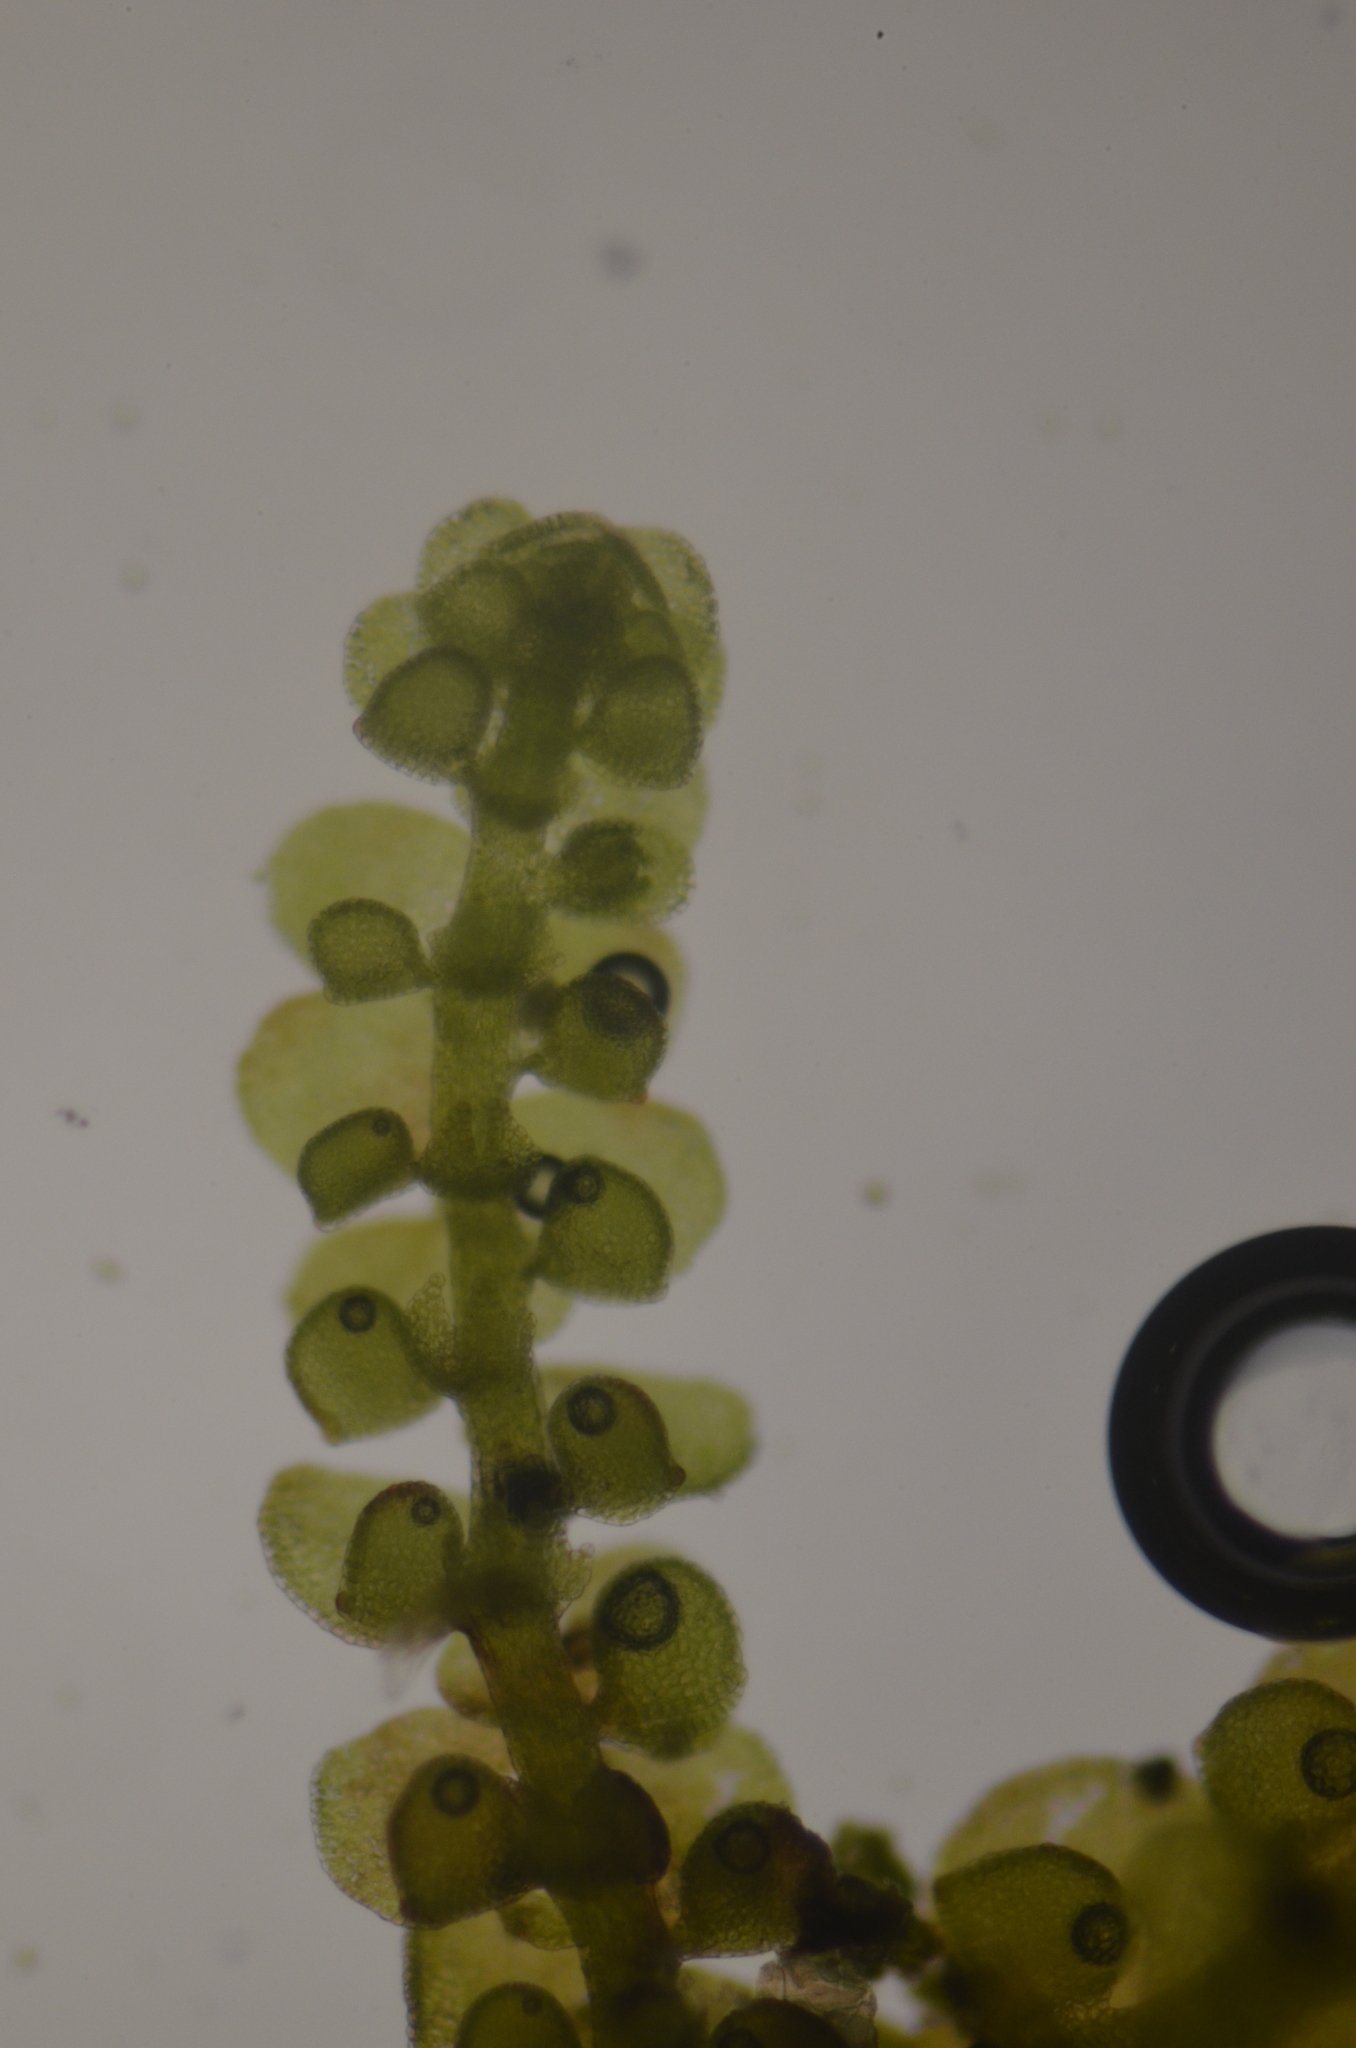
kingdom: Plantae
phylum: Marchantiophyta
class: Jungermanniopsida
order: Porellales
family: Frullaniaceae
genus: Frullania
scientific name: Frullania bolanderi
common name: Bolander s scalewort
